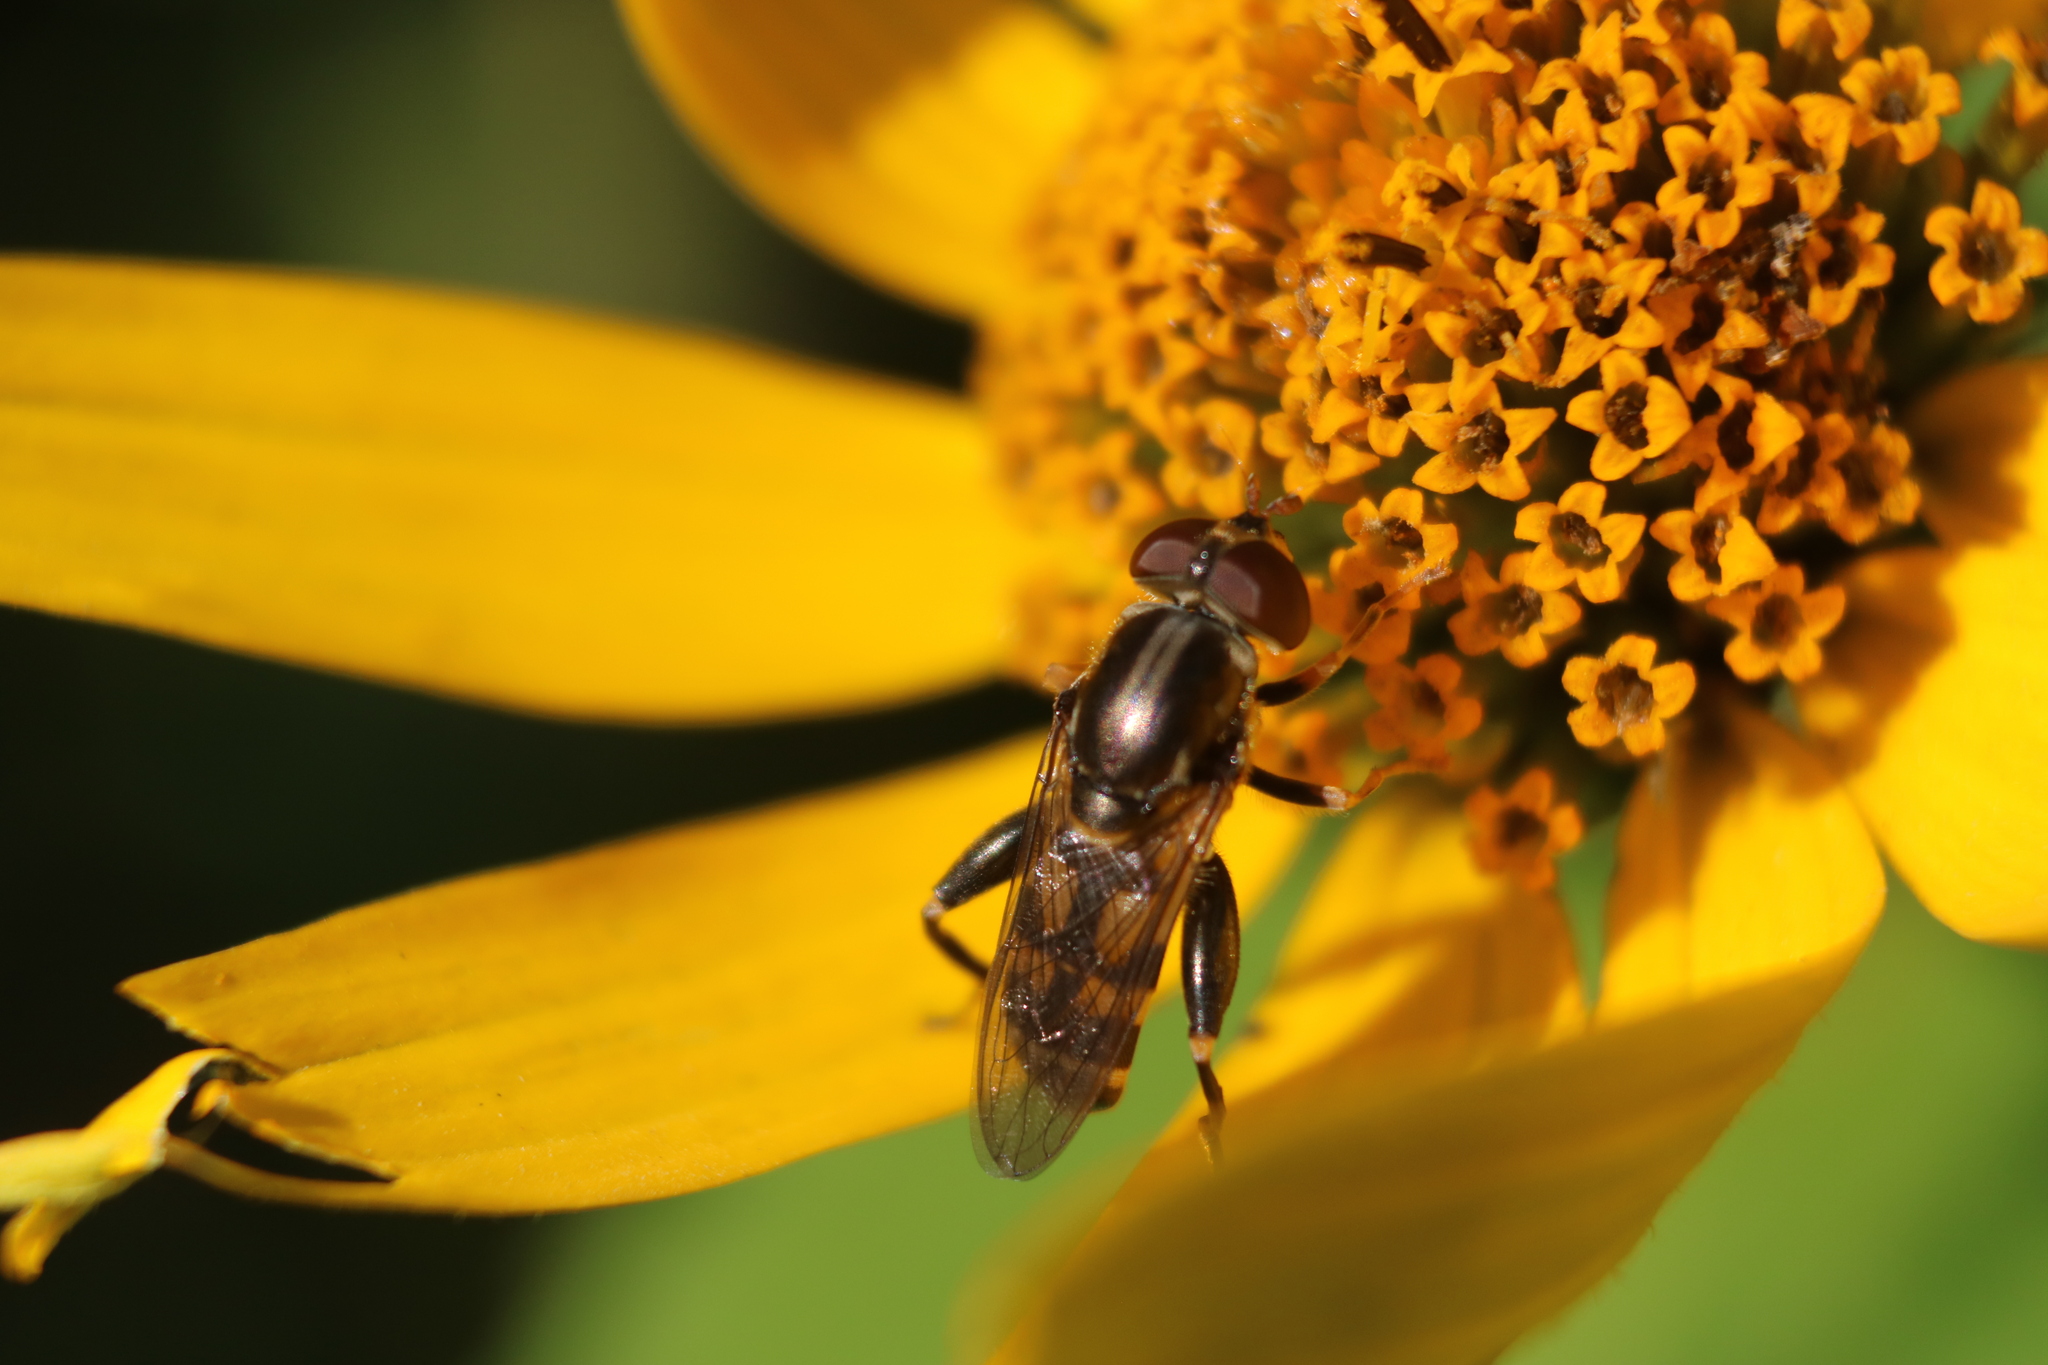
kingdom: Animalia
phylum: Arthropoda
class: Insecta
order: Diptera
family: Syrphidae
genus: Tropidia
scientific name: Tropidia quadrata
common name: Common thick-legged fly
